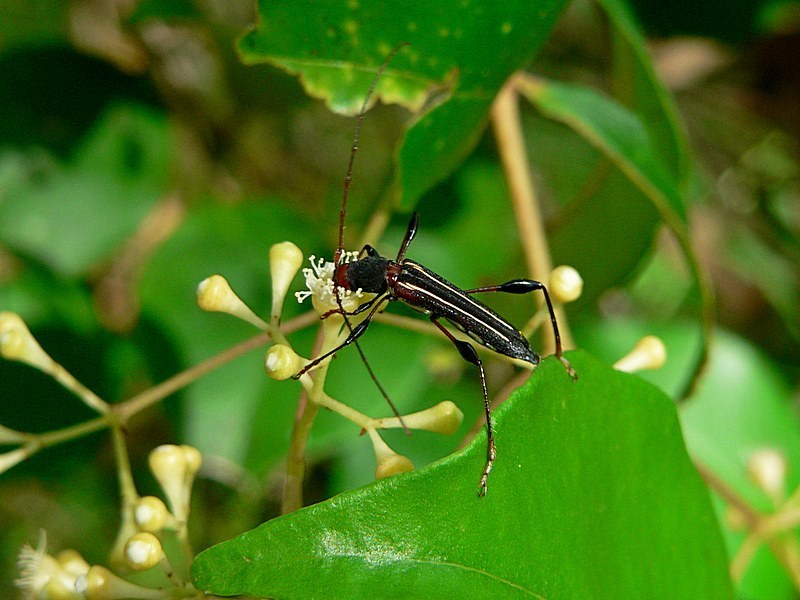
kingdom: Animalia
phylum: Arthropoda
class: Insecta
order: Coleoptera
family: Cerambycidae
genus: Amphirhoe
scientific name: Amphirhoe sloanei
